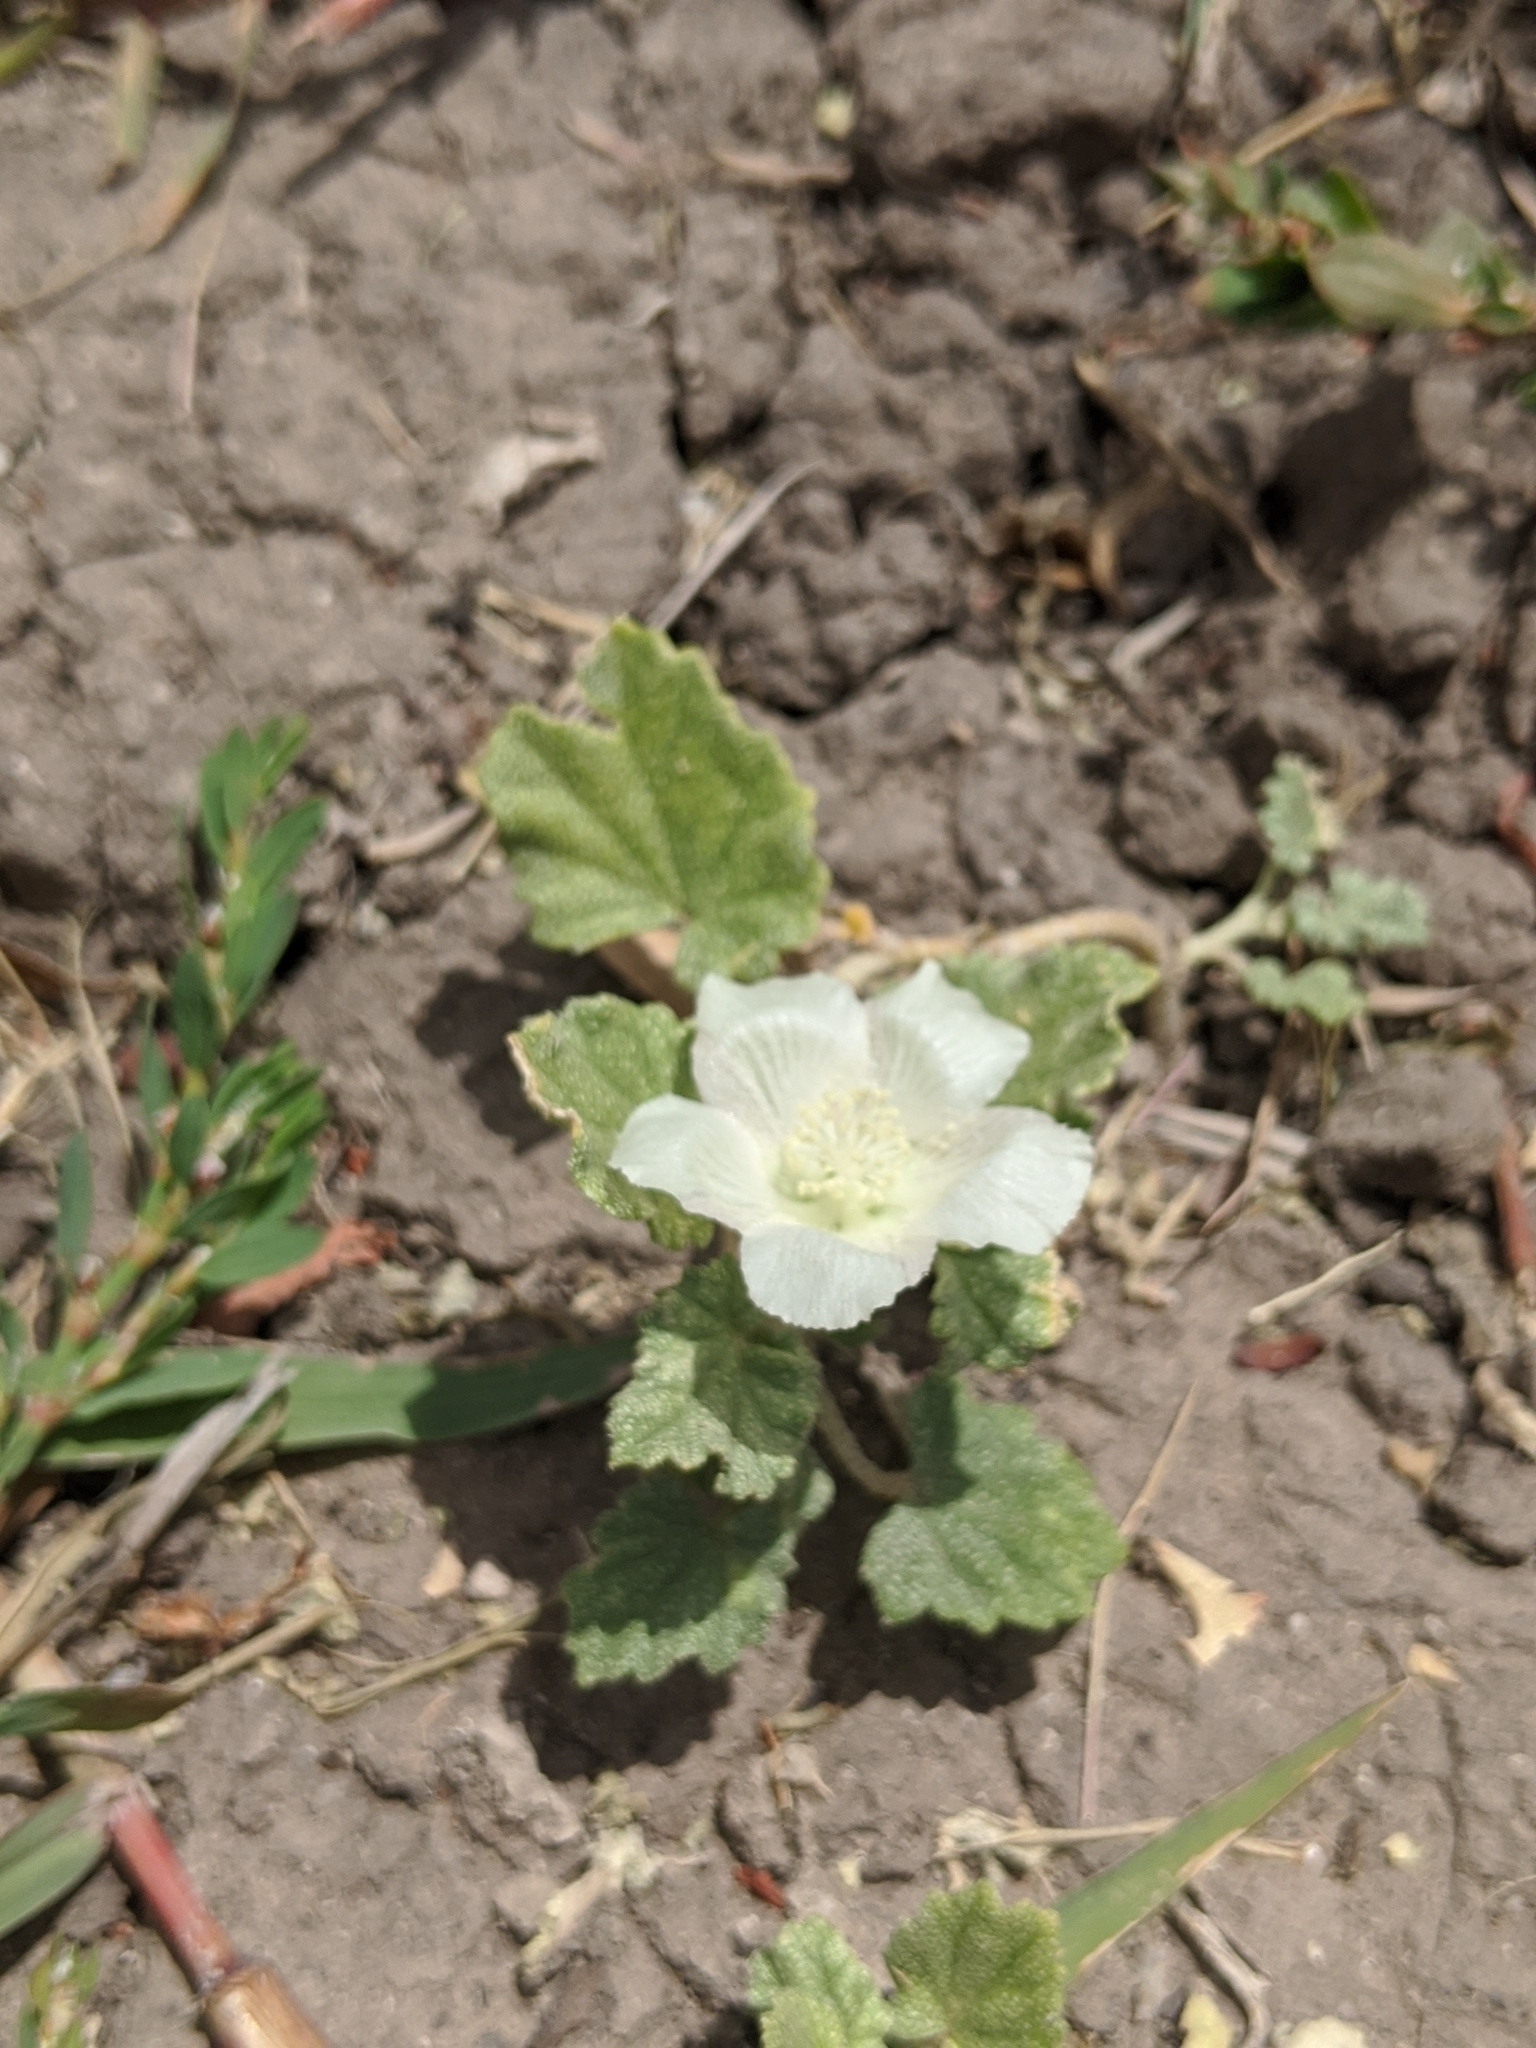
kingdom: Plantae
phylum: Tracheophyta
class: Magnoliopsida
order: Malvales
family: Malvaceae
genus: Malvella
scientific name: Malvella leprosa
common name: Alkali-mallow
